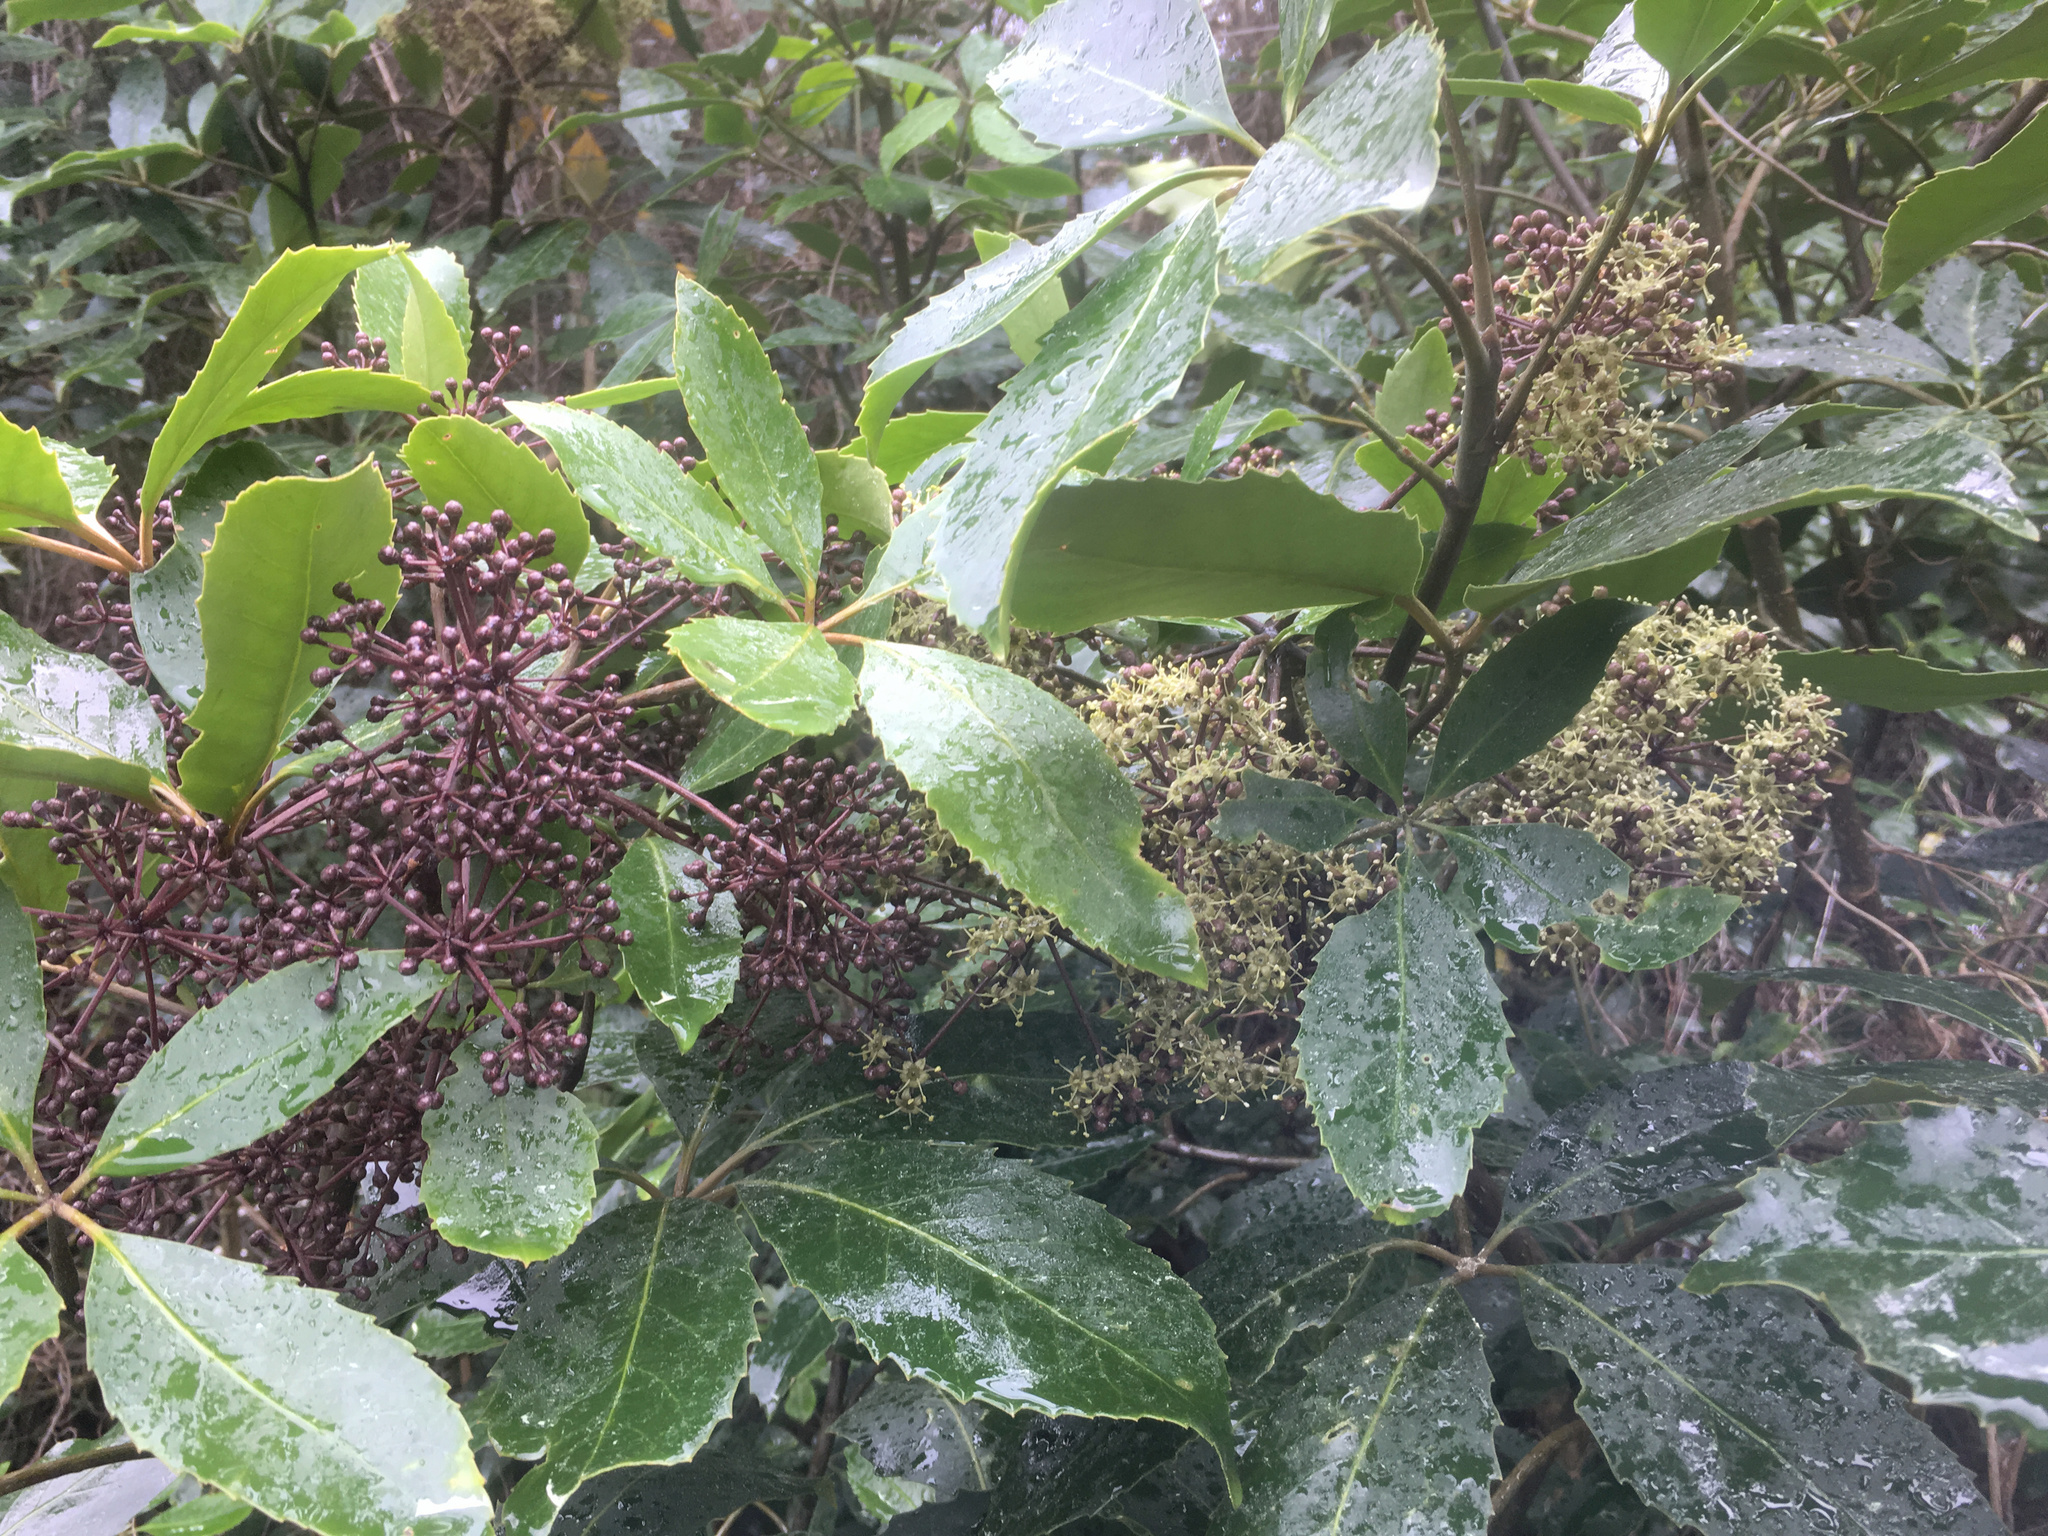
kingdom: Plantae
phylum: Tracheophyta
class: Magnoliopsida
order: Apiales
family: Araliaceae
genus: Neopanax
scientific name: Neopanax arboreus
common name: Five-fingers
